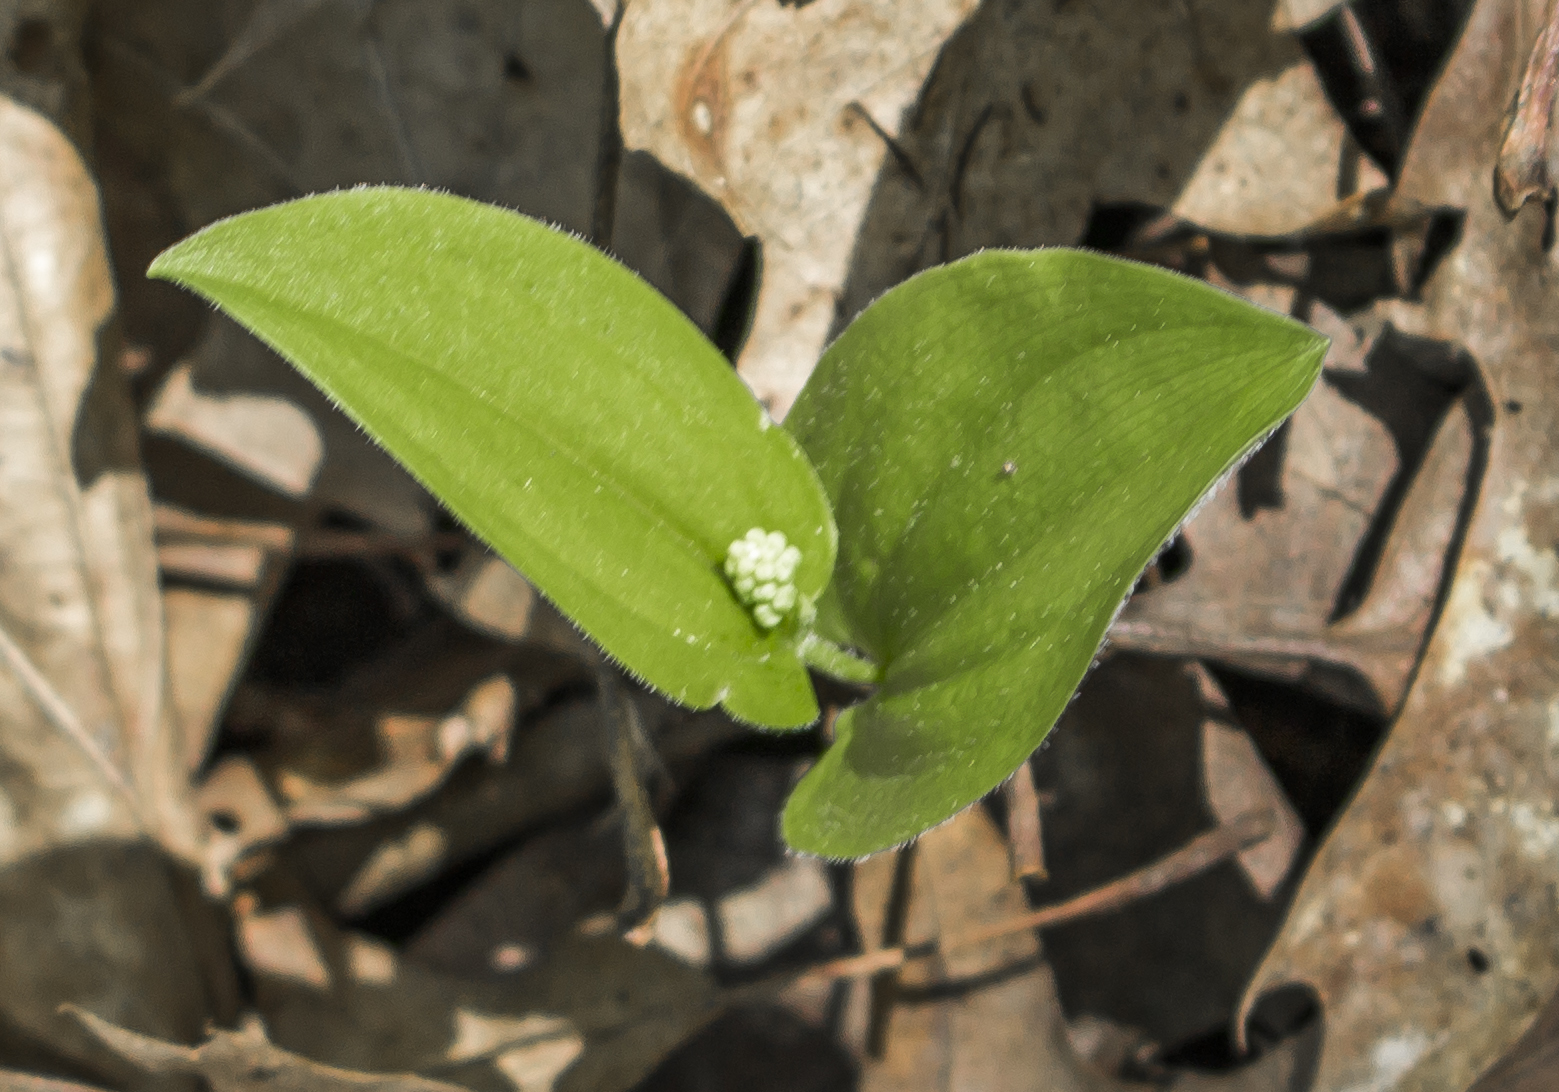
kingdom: Plantae
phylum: Tracheophyta
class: Liliopsida
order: Asparagales
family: Asparagaceae
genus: Maianthemum
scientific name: Maianthemum canadense
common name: False lily-of-the-valley
